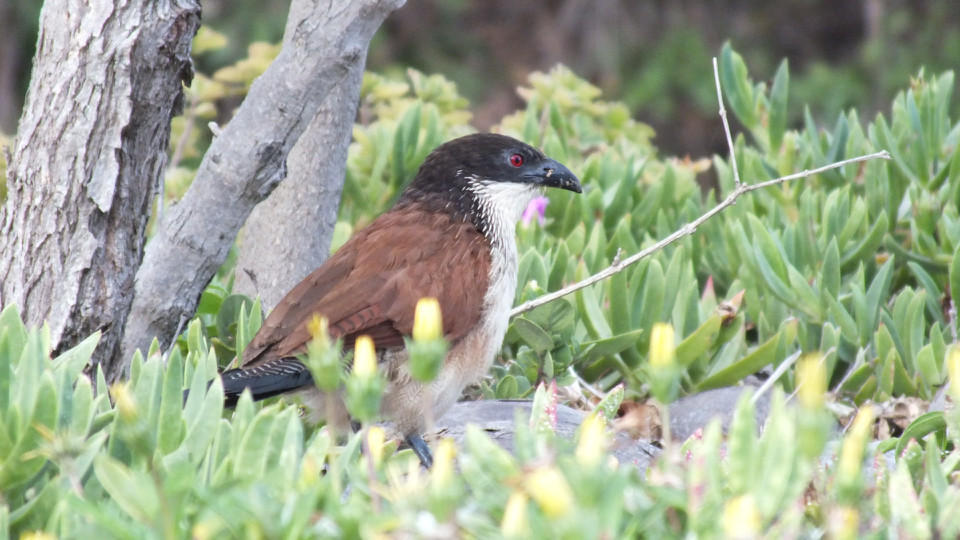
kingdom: Animalia
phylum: Chordata
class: Aves
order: Cuculiformes
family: Cuculidae
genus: Centropus
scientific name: Centropus superciliosus
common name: White-browed coucal
